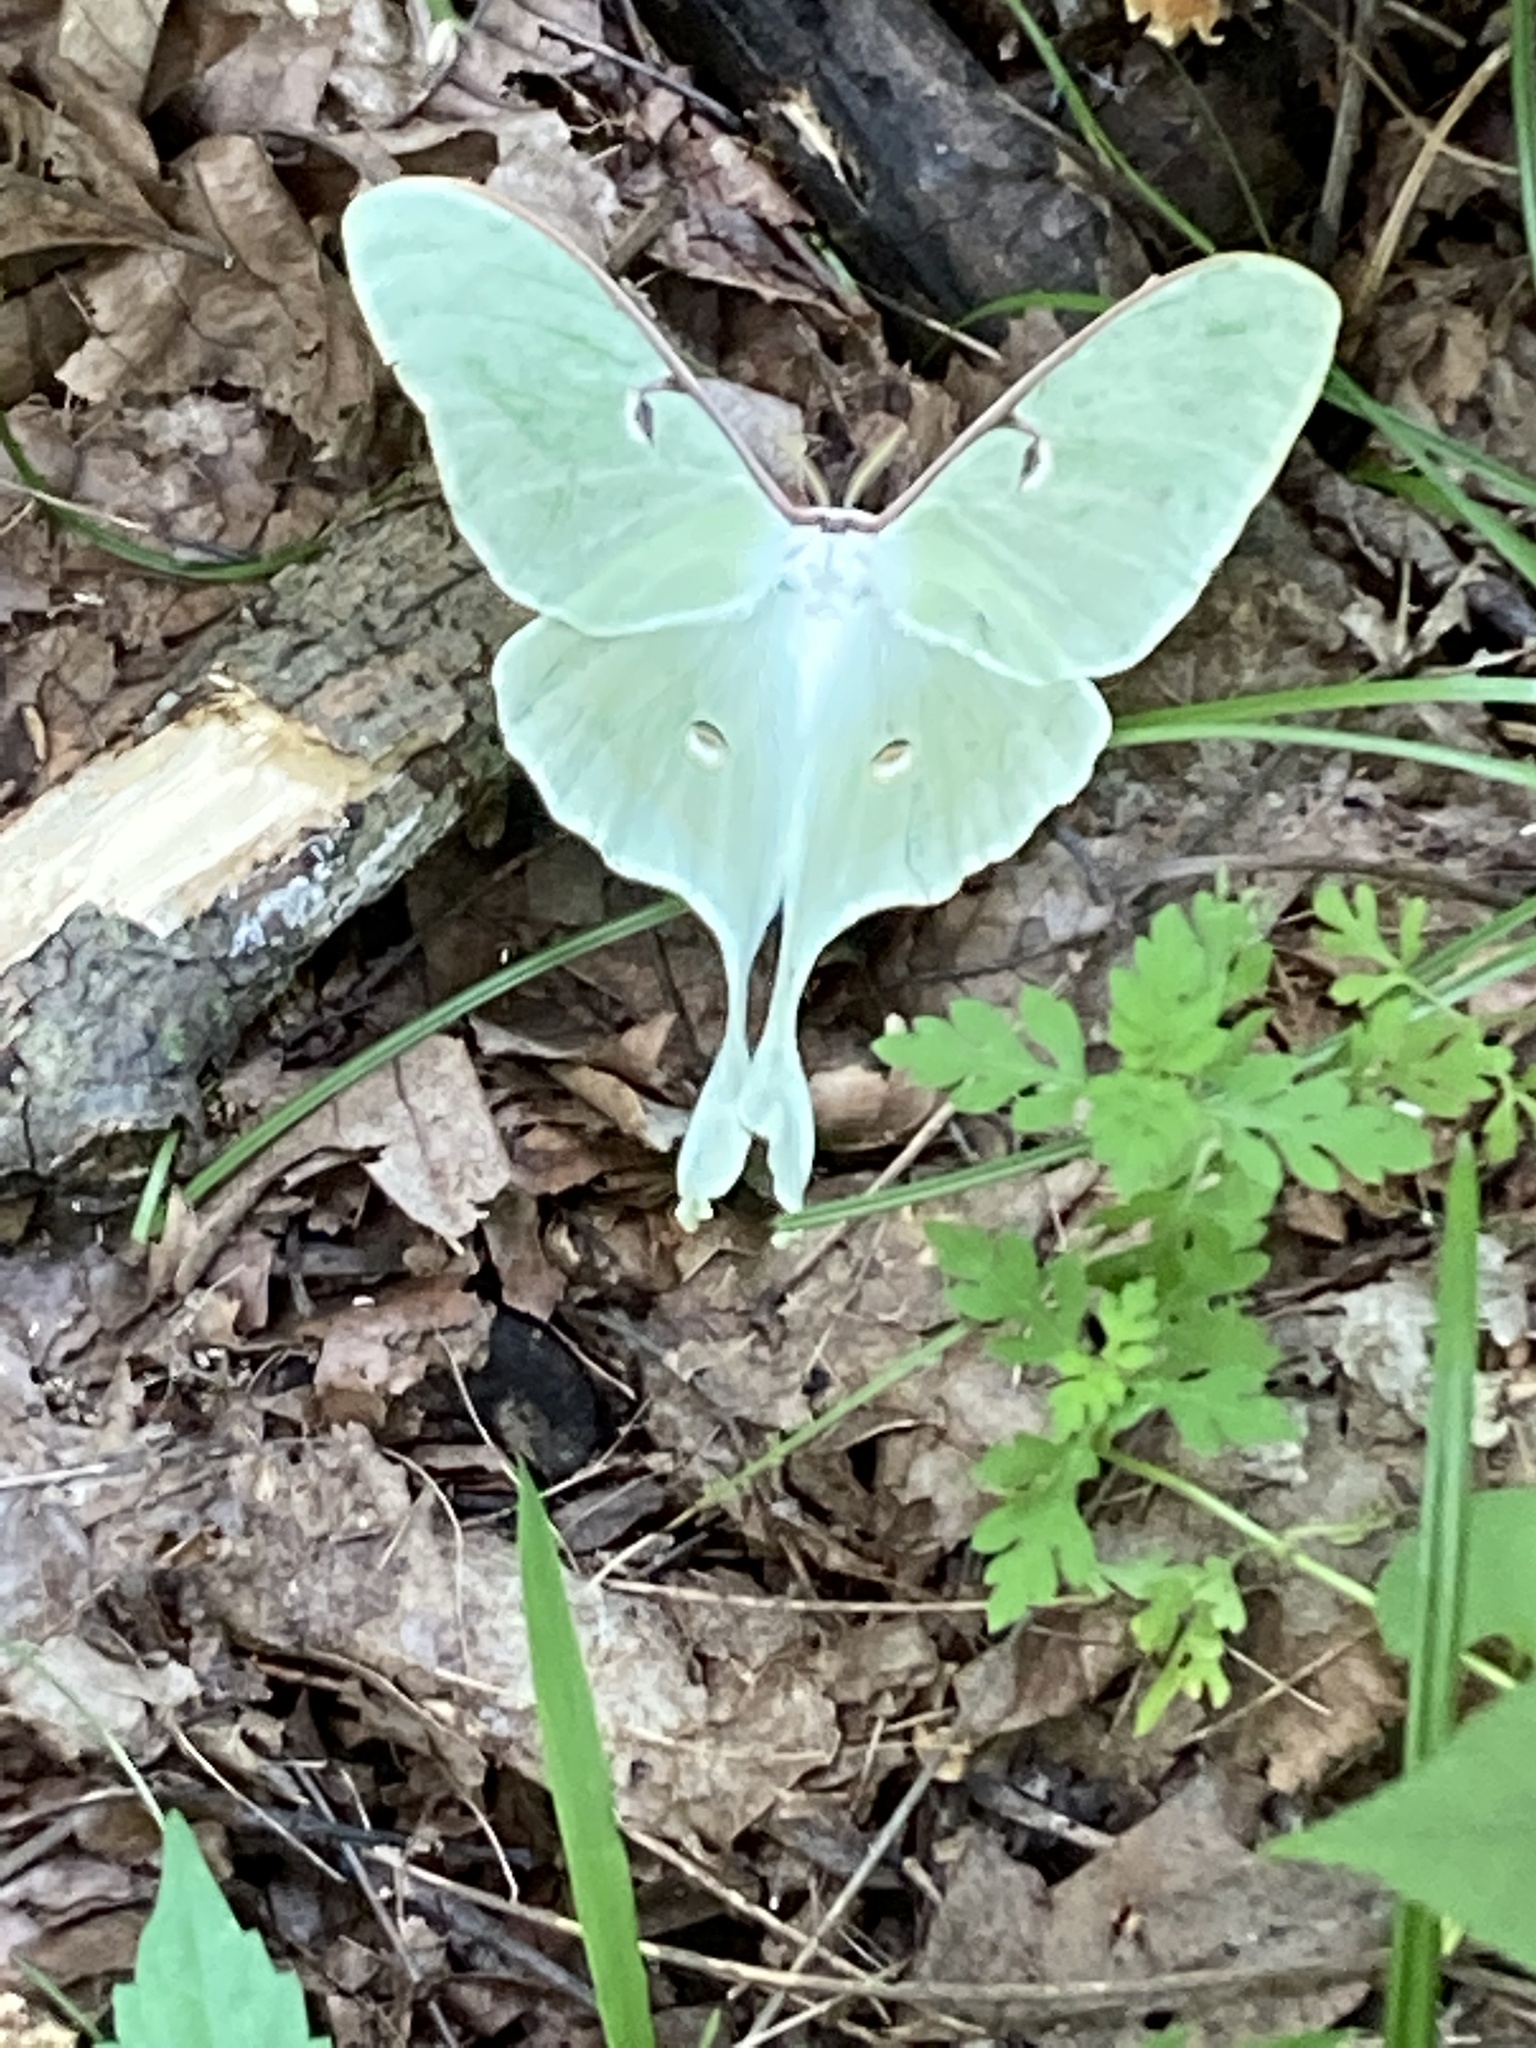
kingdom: Animalia
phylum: Arthropoda
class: Insecta
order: Lepidoptera
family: Saturniidae
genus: Actias
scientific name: Actias luna
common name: Luna moth
